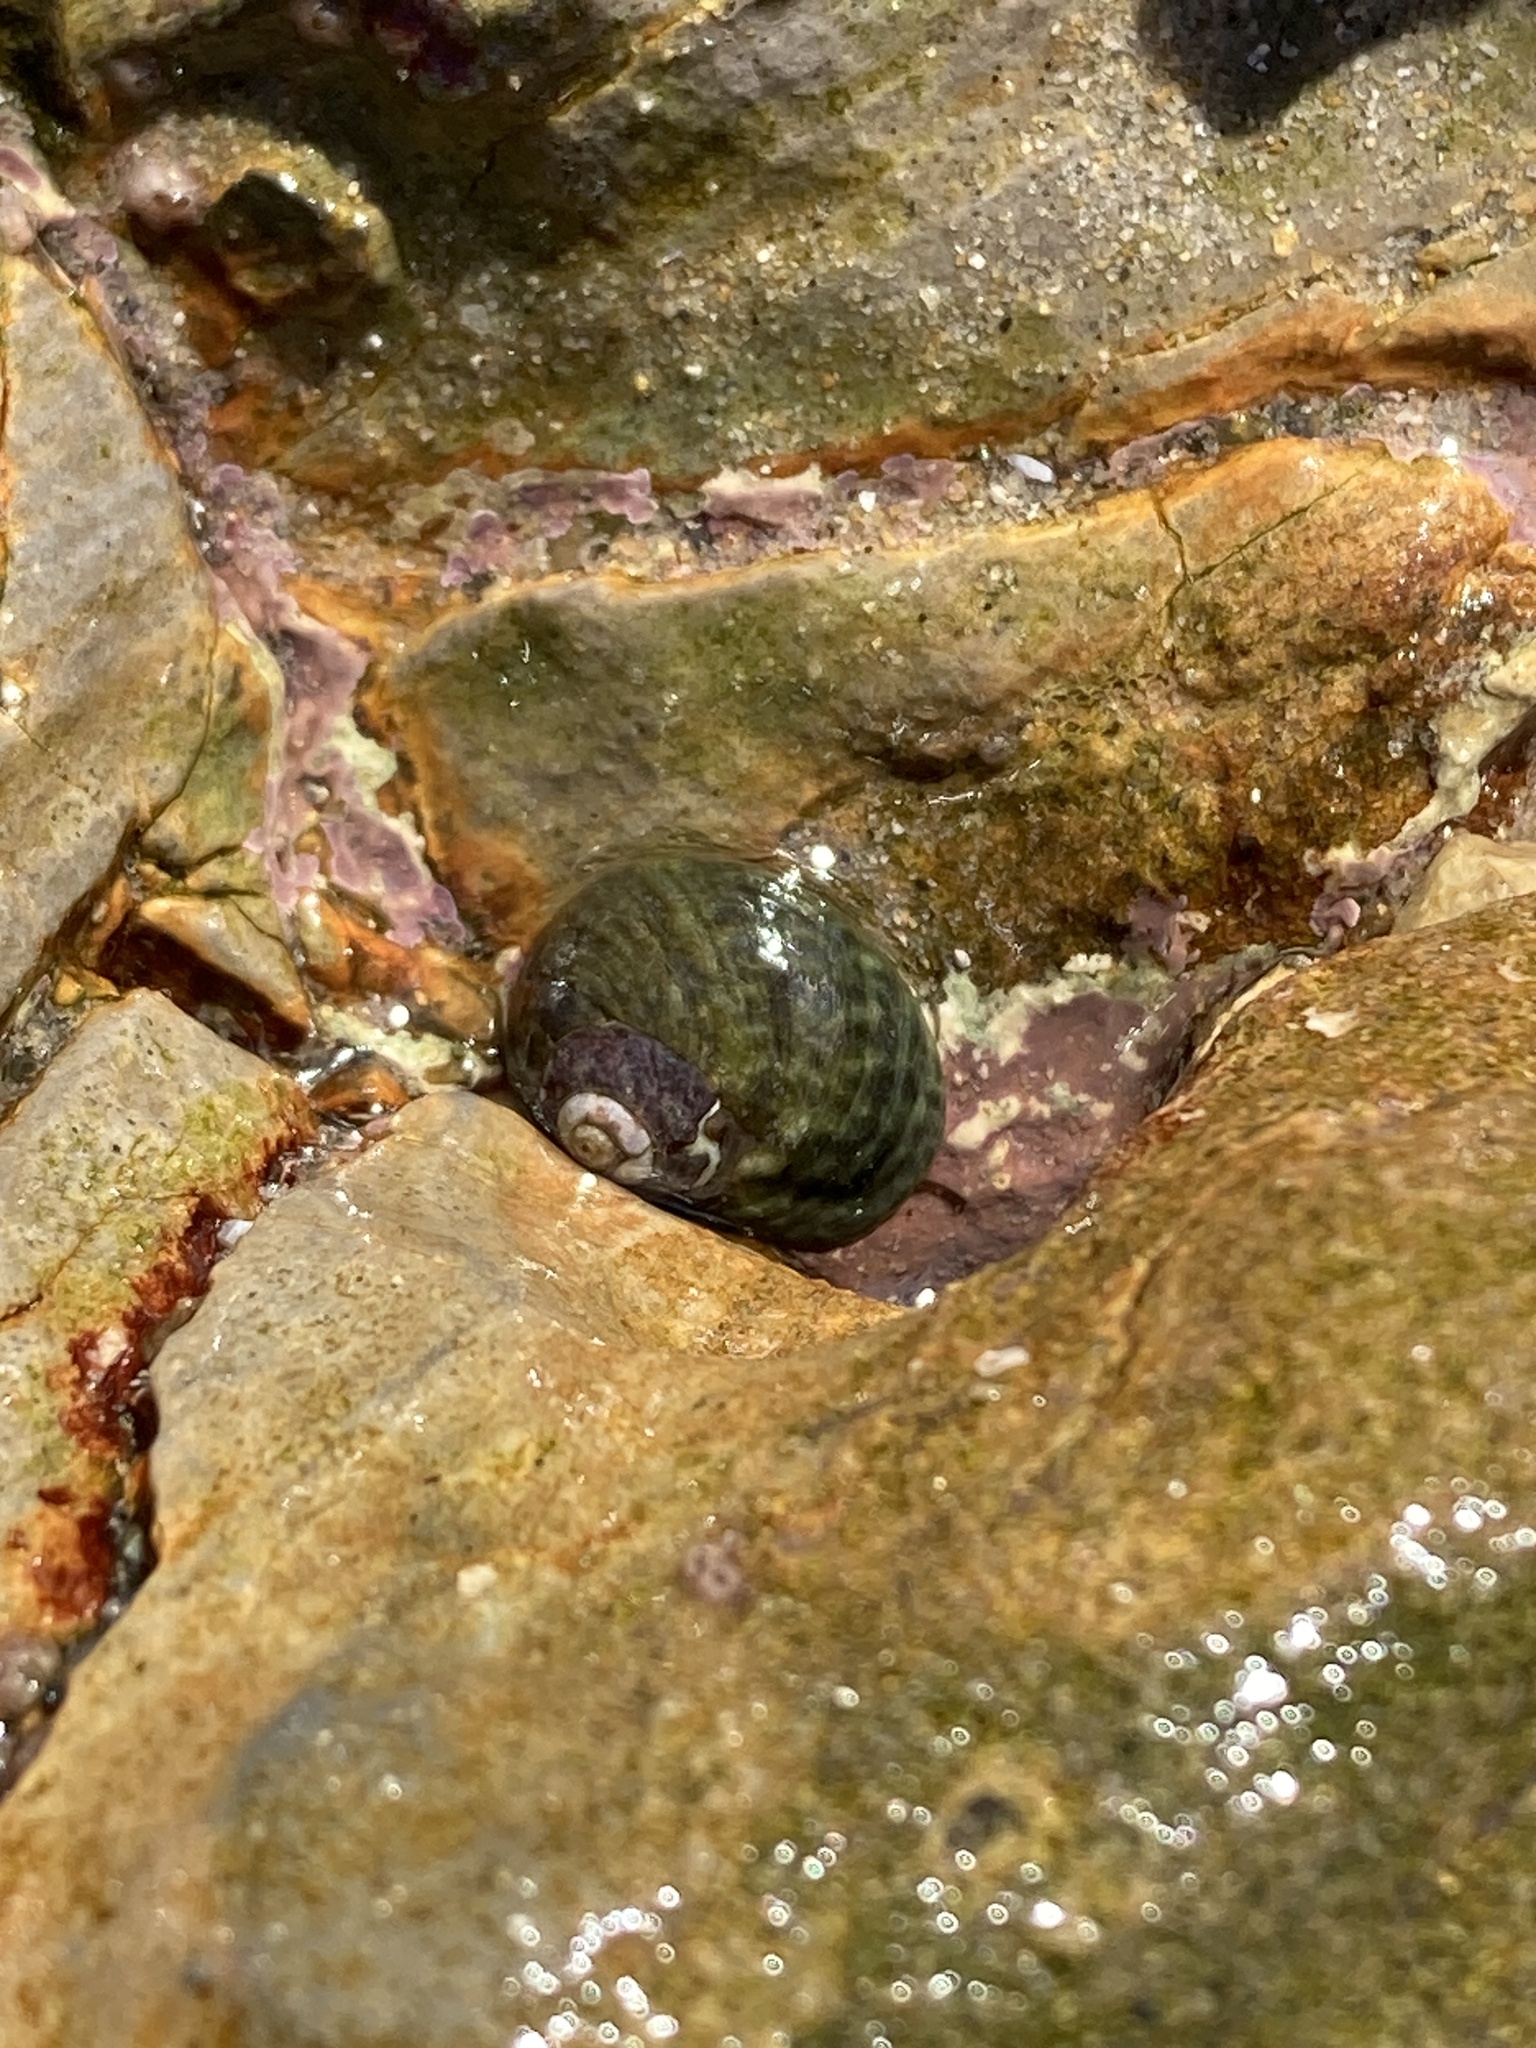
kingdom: Animalia
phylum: Mollusca
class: Gastropoda
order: Trochida
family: Tegulidae
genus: Tegula
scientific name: Tegula gallina
